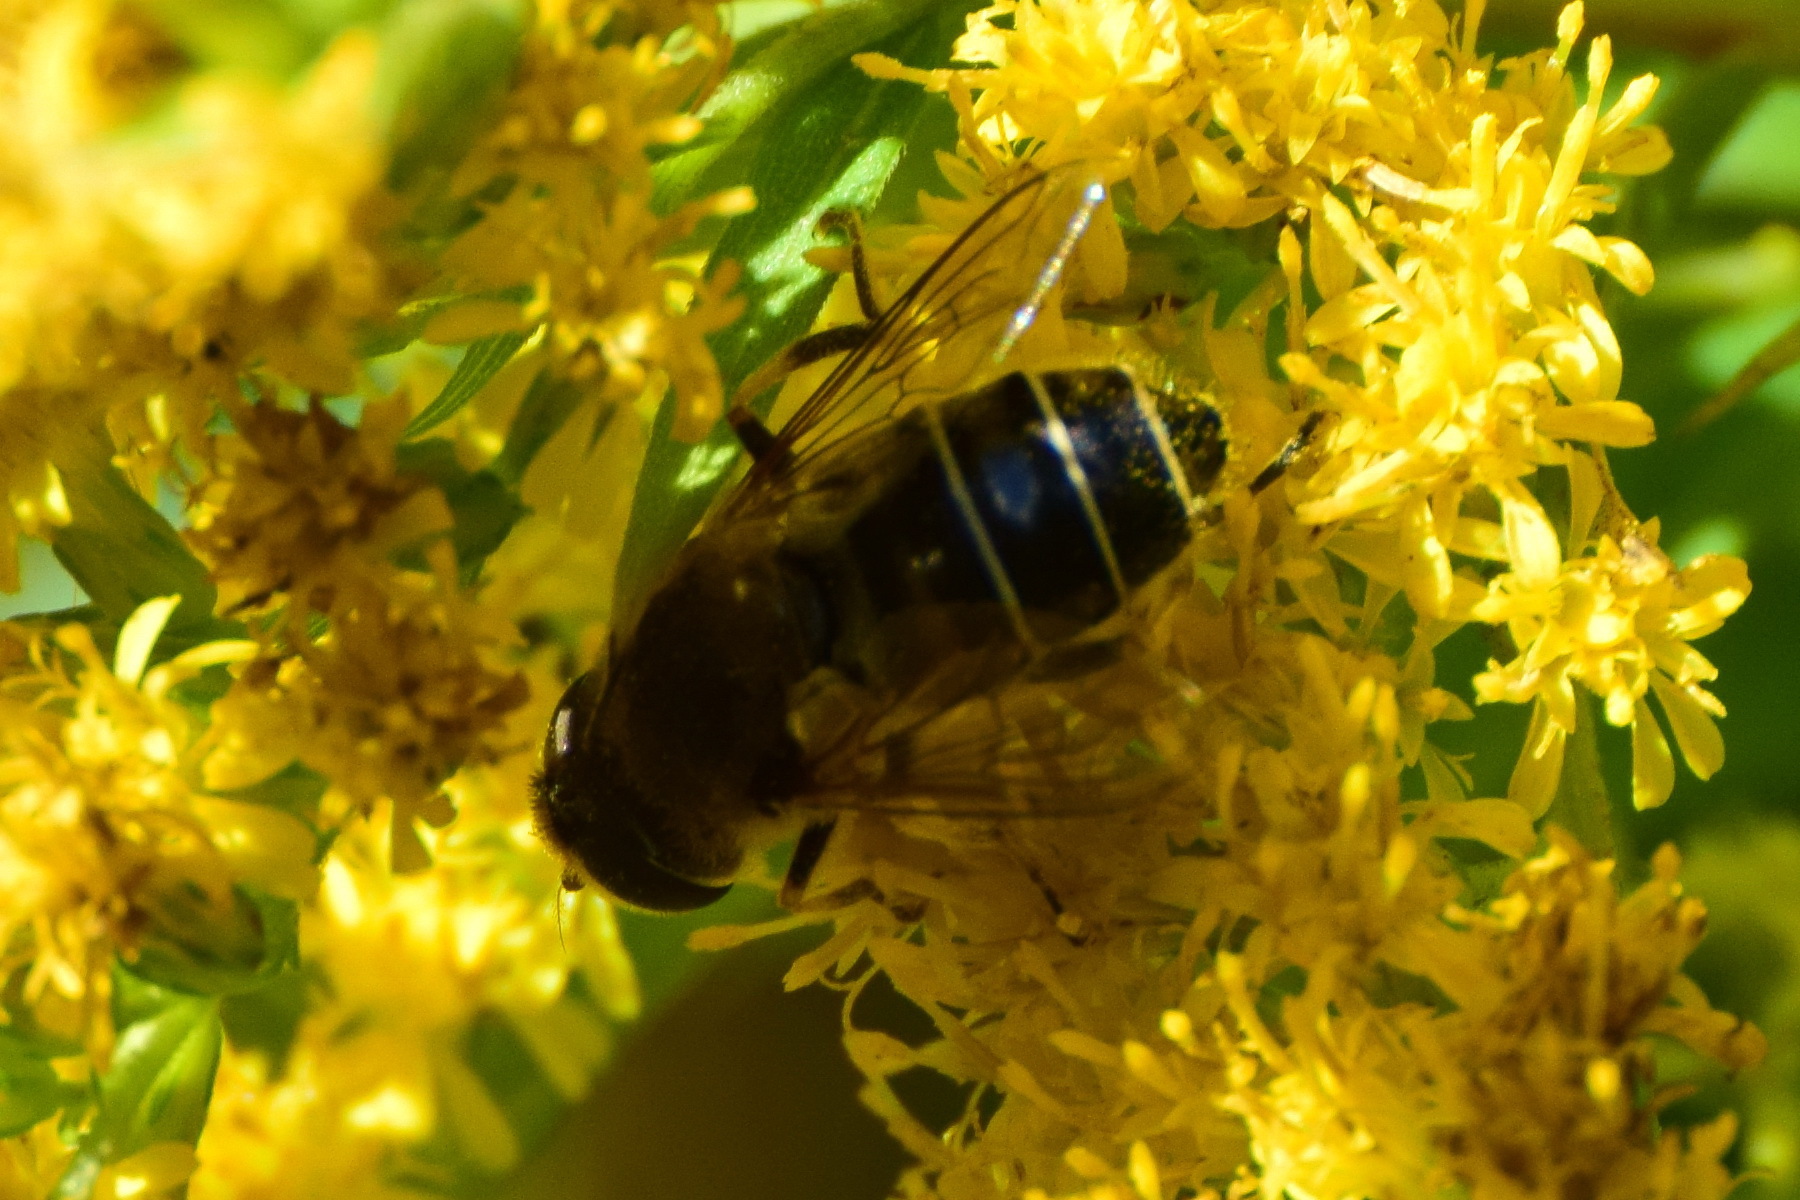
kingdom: Animalia
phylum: Arthropoda
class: Insecta
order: Diptera
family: Syrphidae
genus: Eristalis
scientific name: Eristalis nemorum
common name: Orange-spined drone fly
